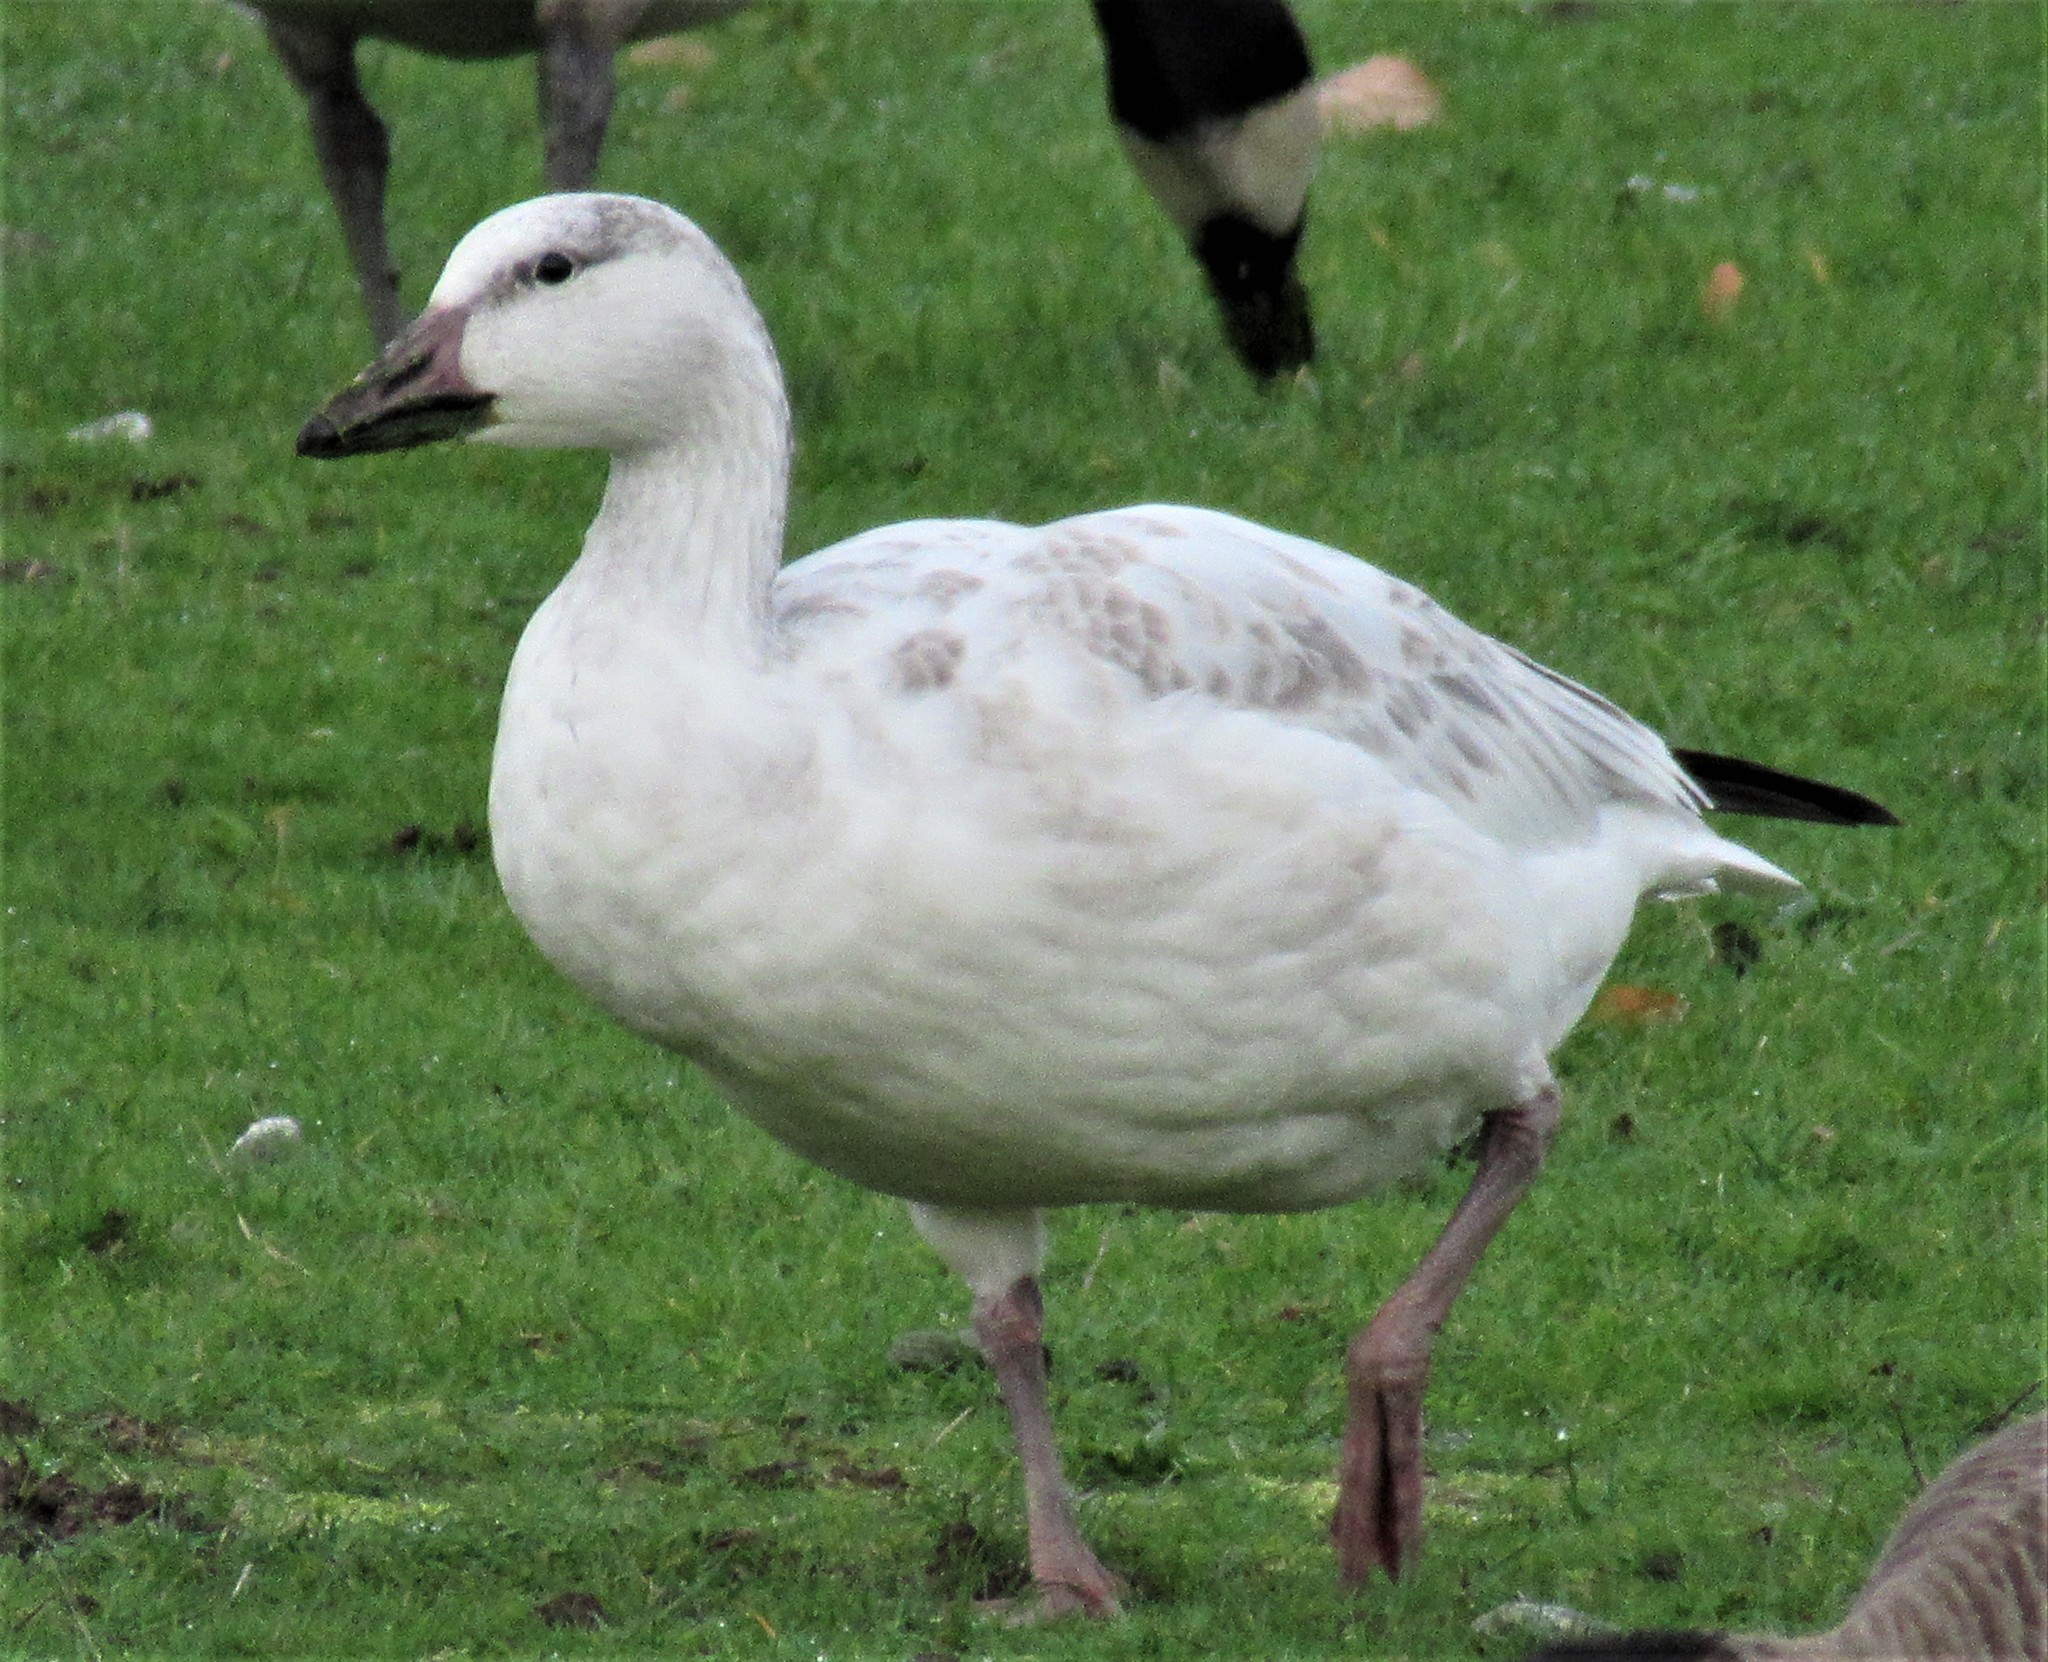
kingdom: Animalia
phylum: Chordata
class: Aves
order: Anseriformes
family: Anatidae
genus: Anser
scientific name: Anser caerulescens
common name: Snow goose
